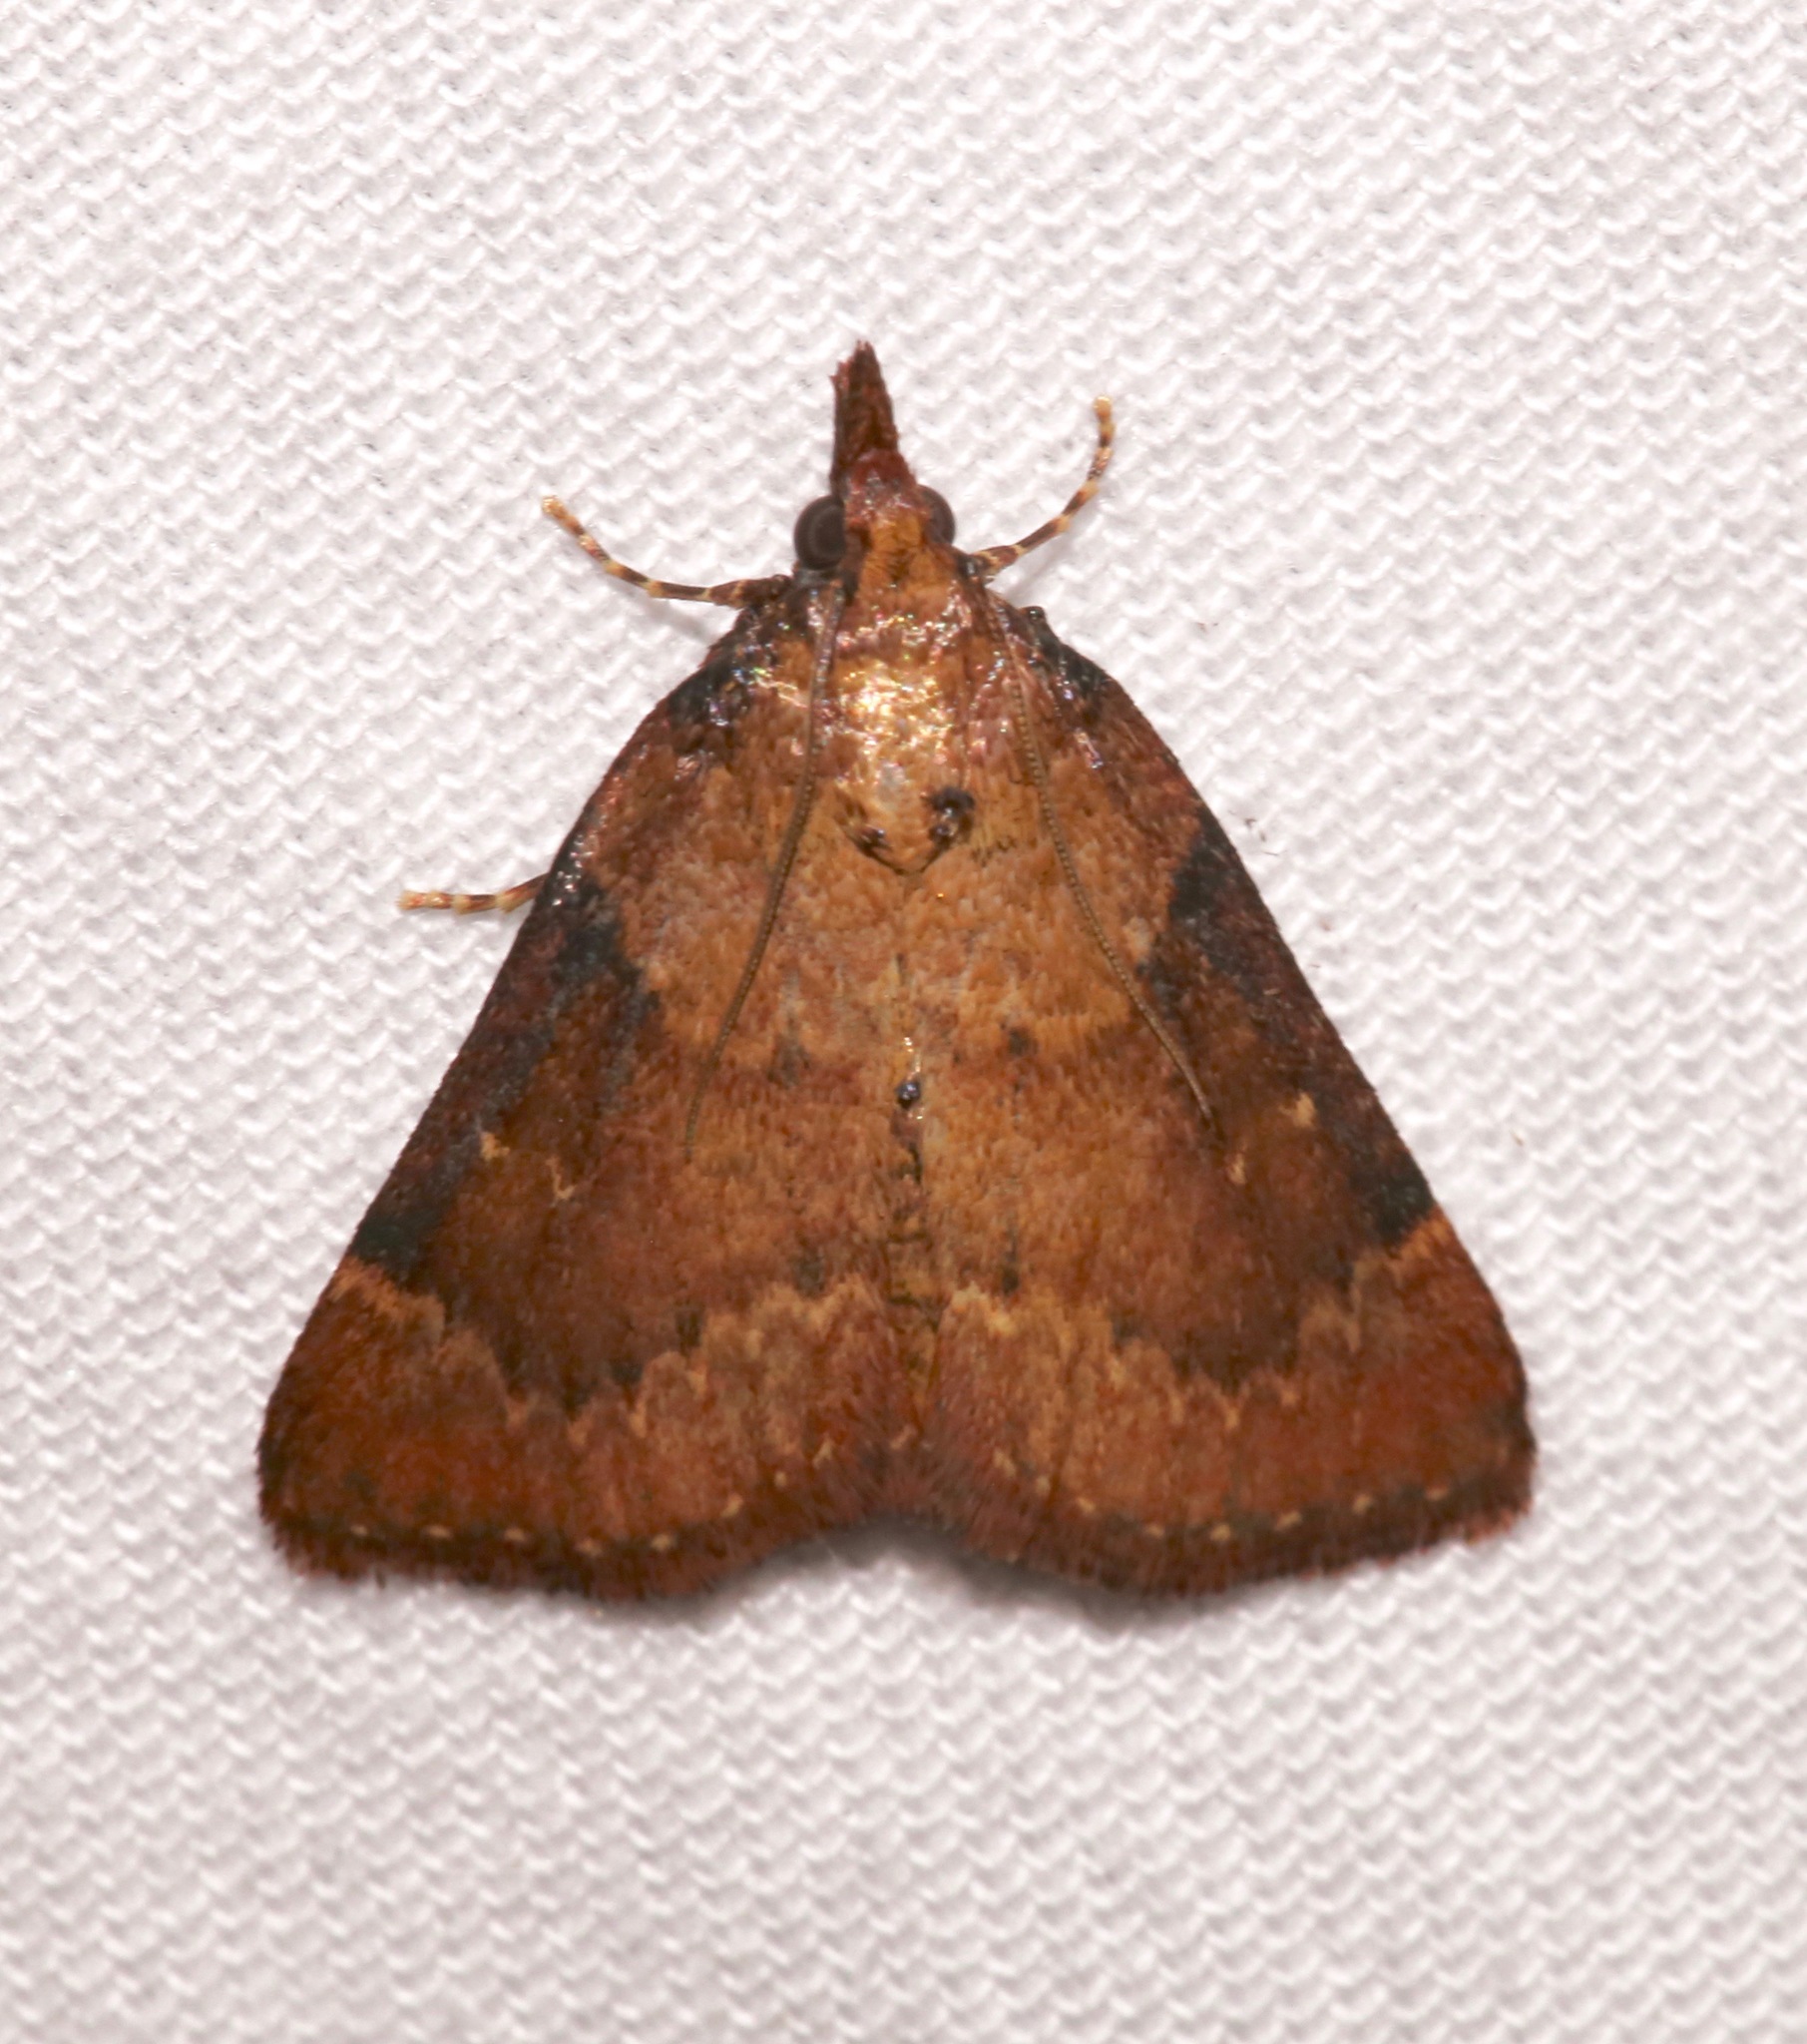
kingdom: Animalia
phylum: Arthropoda
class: Insecta
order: Lepidoptera
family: Pyralidae
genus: Omphalocera
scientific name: Omphalocera munroei
